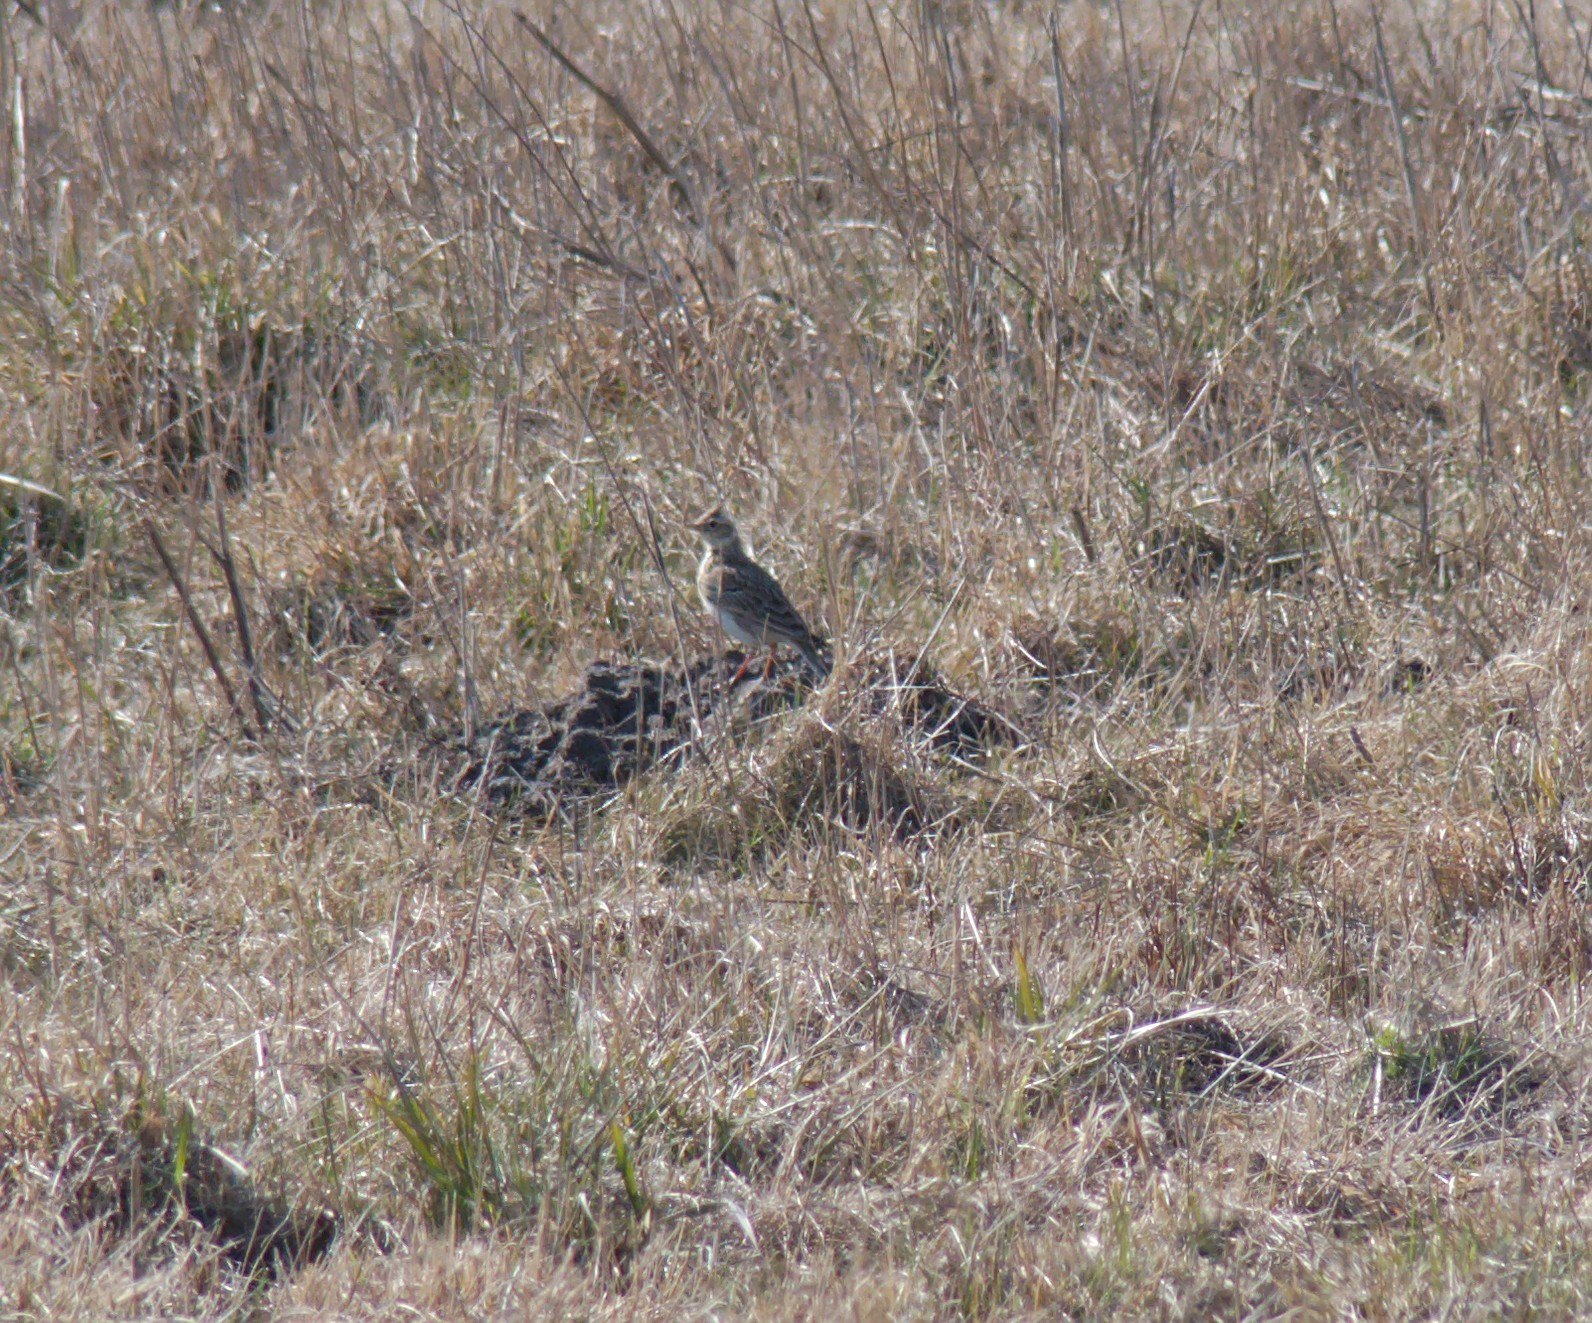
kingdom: Animalia
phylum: Chordata
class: Aves
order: Passeriformes
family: Alaudidae
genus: Alauda
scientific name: Alauda arvensis
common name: Eurasian skylark
